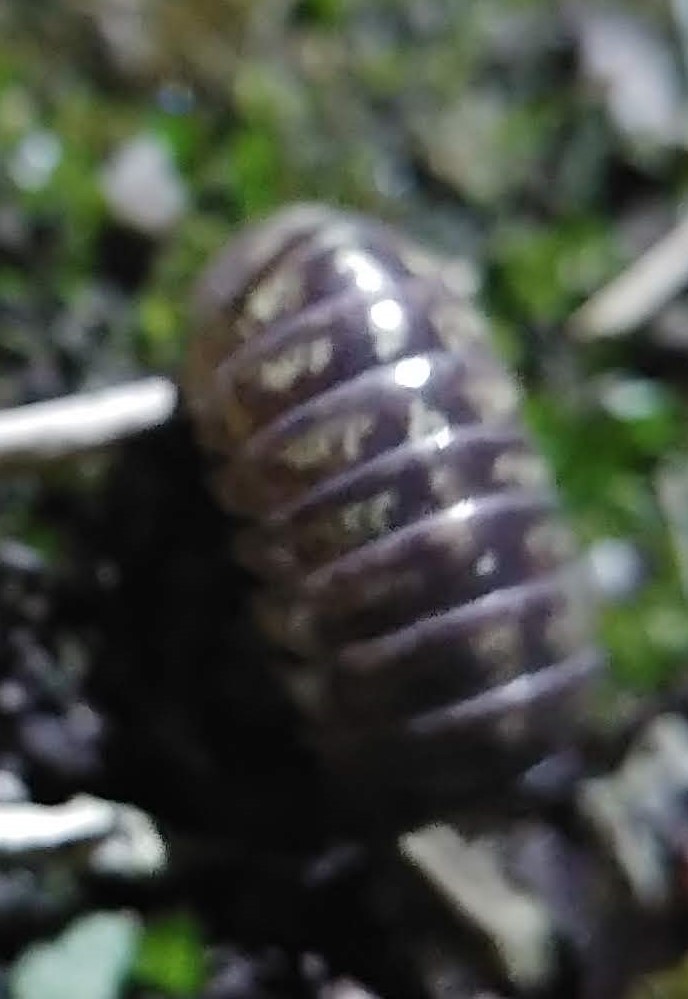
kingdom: Animalia
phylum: Arthropoda
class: Malacostraca
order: Isopoda
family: Armadillidiidae
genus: Armadillidium
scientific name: Armadillidium vulgare
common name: Common pill woodlouse
